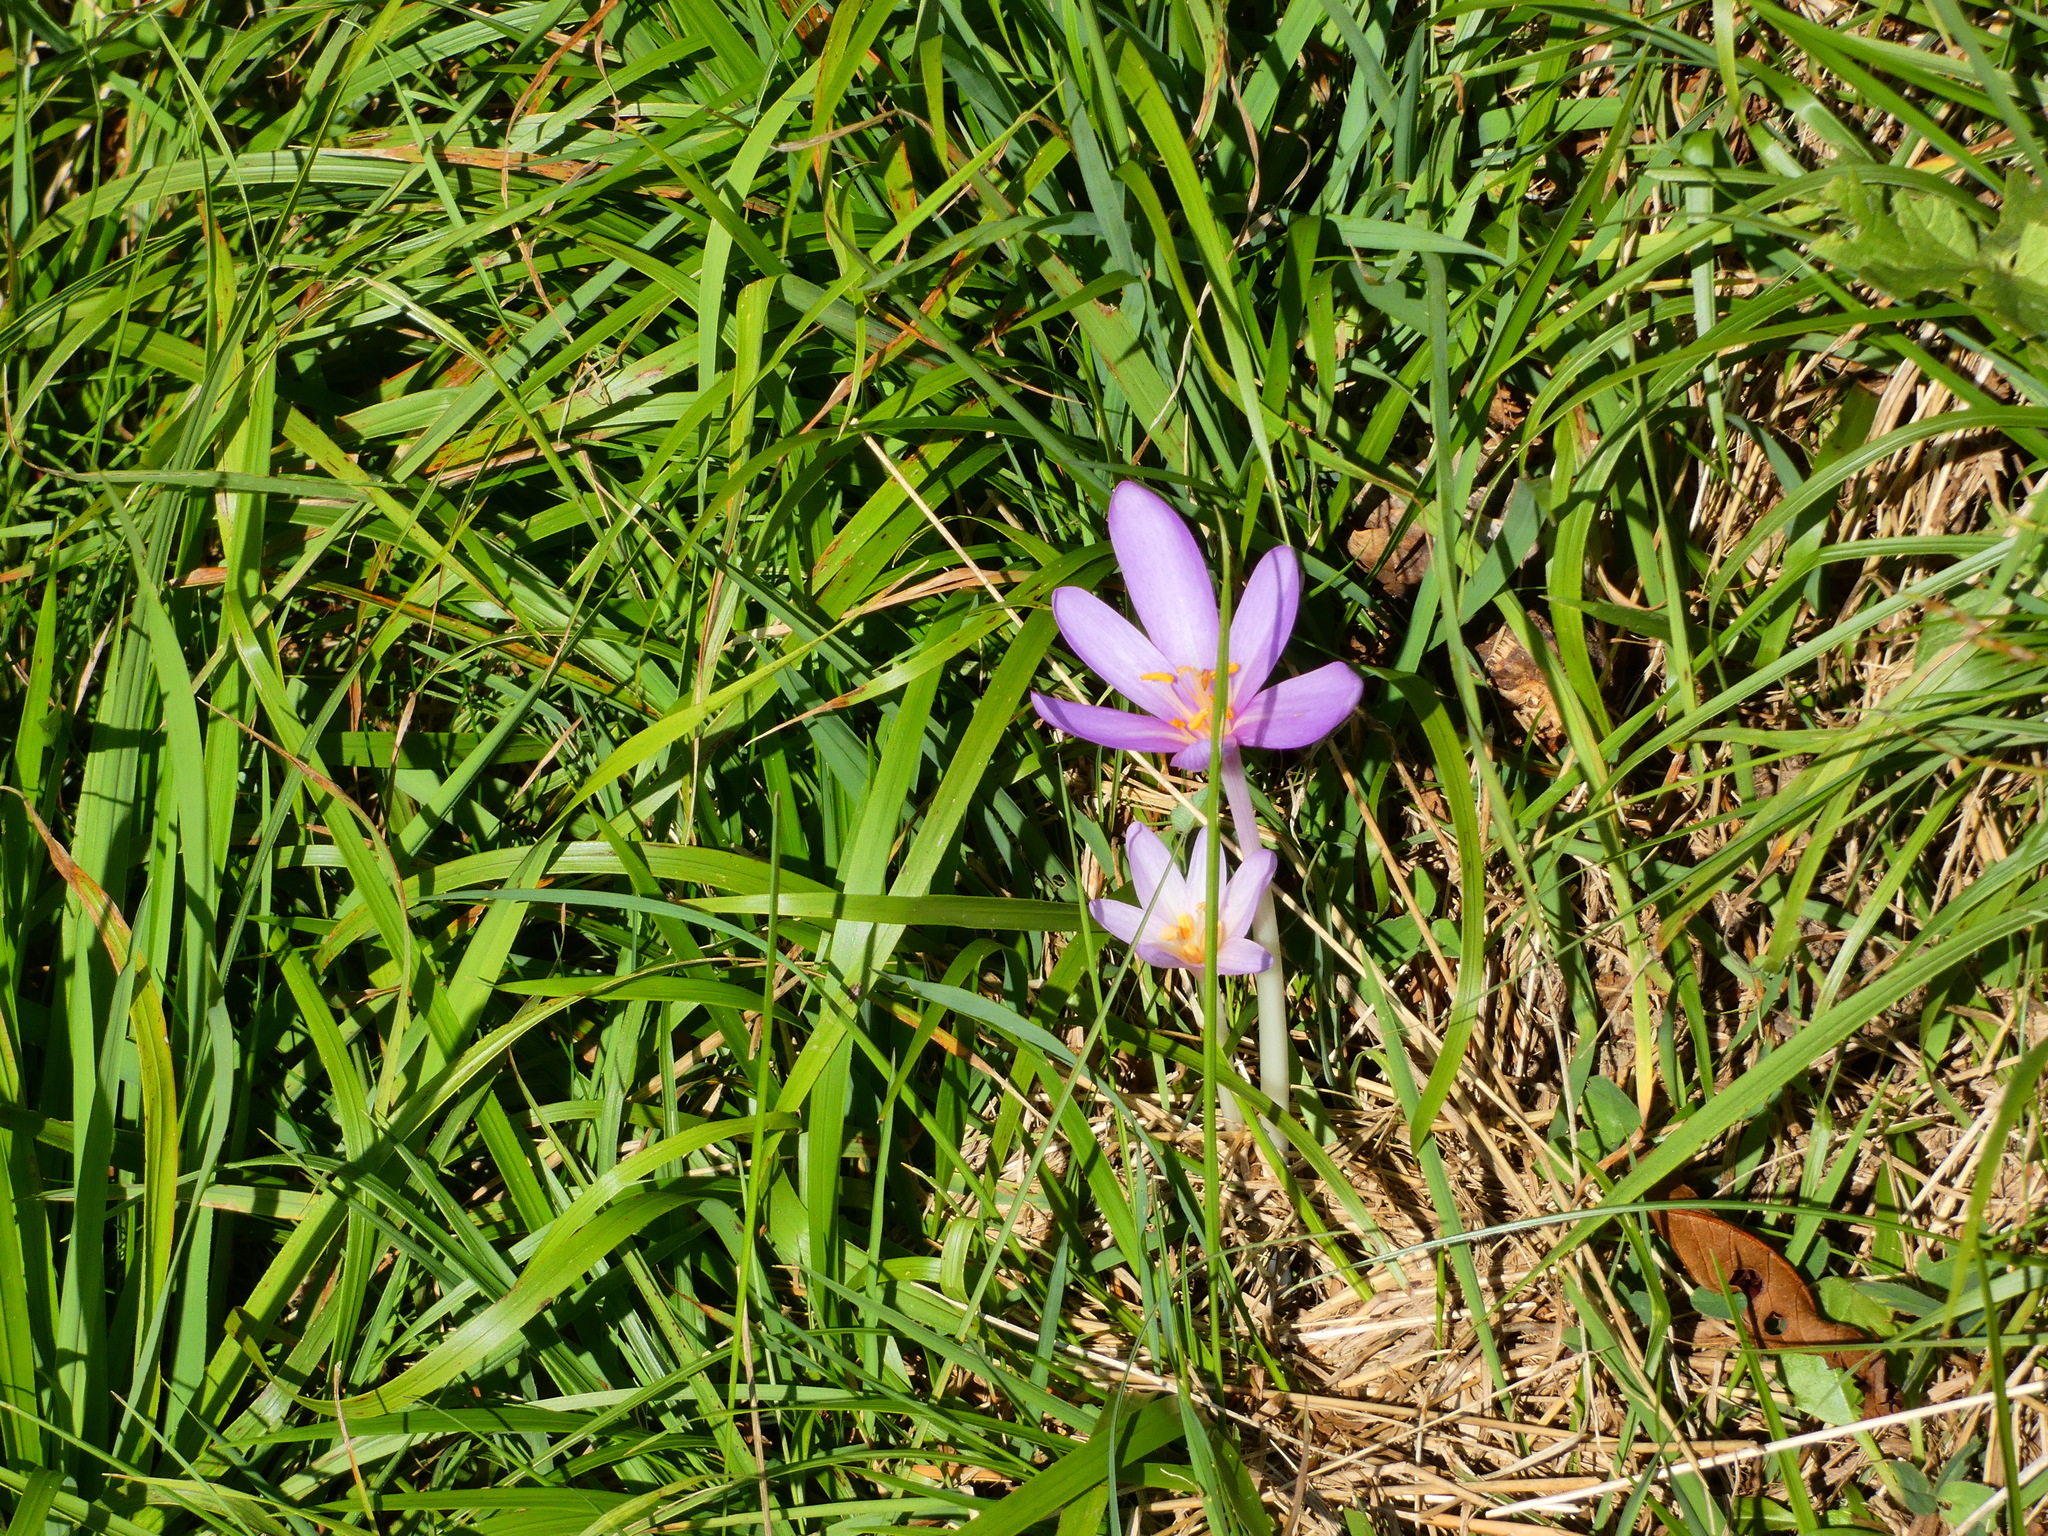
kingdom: Plantae
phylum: Tracheophyta
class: Liliopsida
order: Liliales
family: Colchicaceae
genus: Colchicum
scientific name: Colchicum autumnale
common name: Autumn crocus
